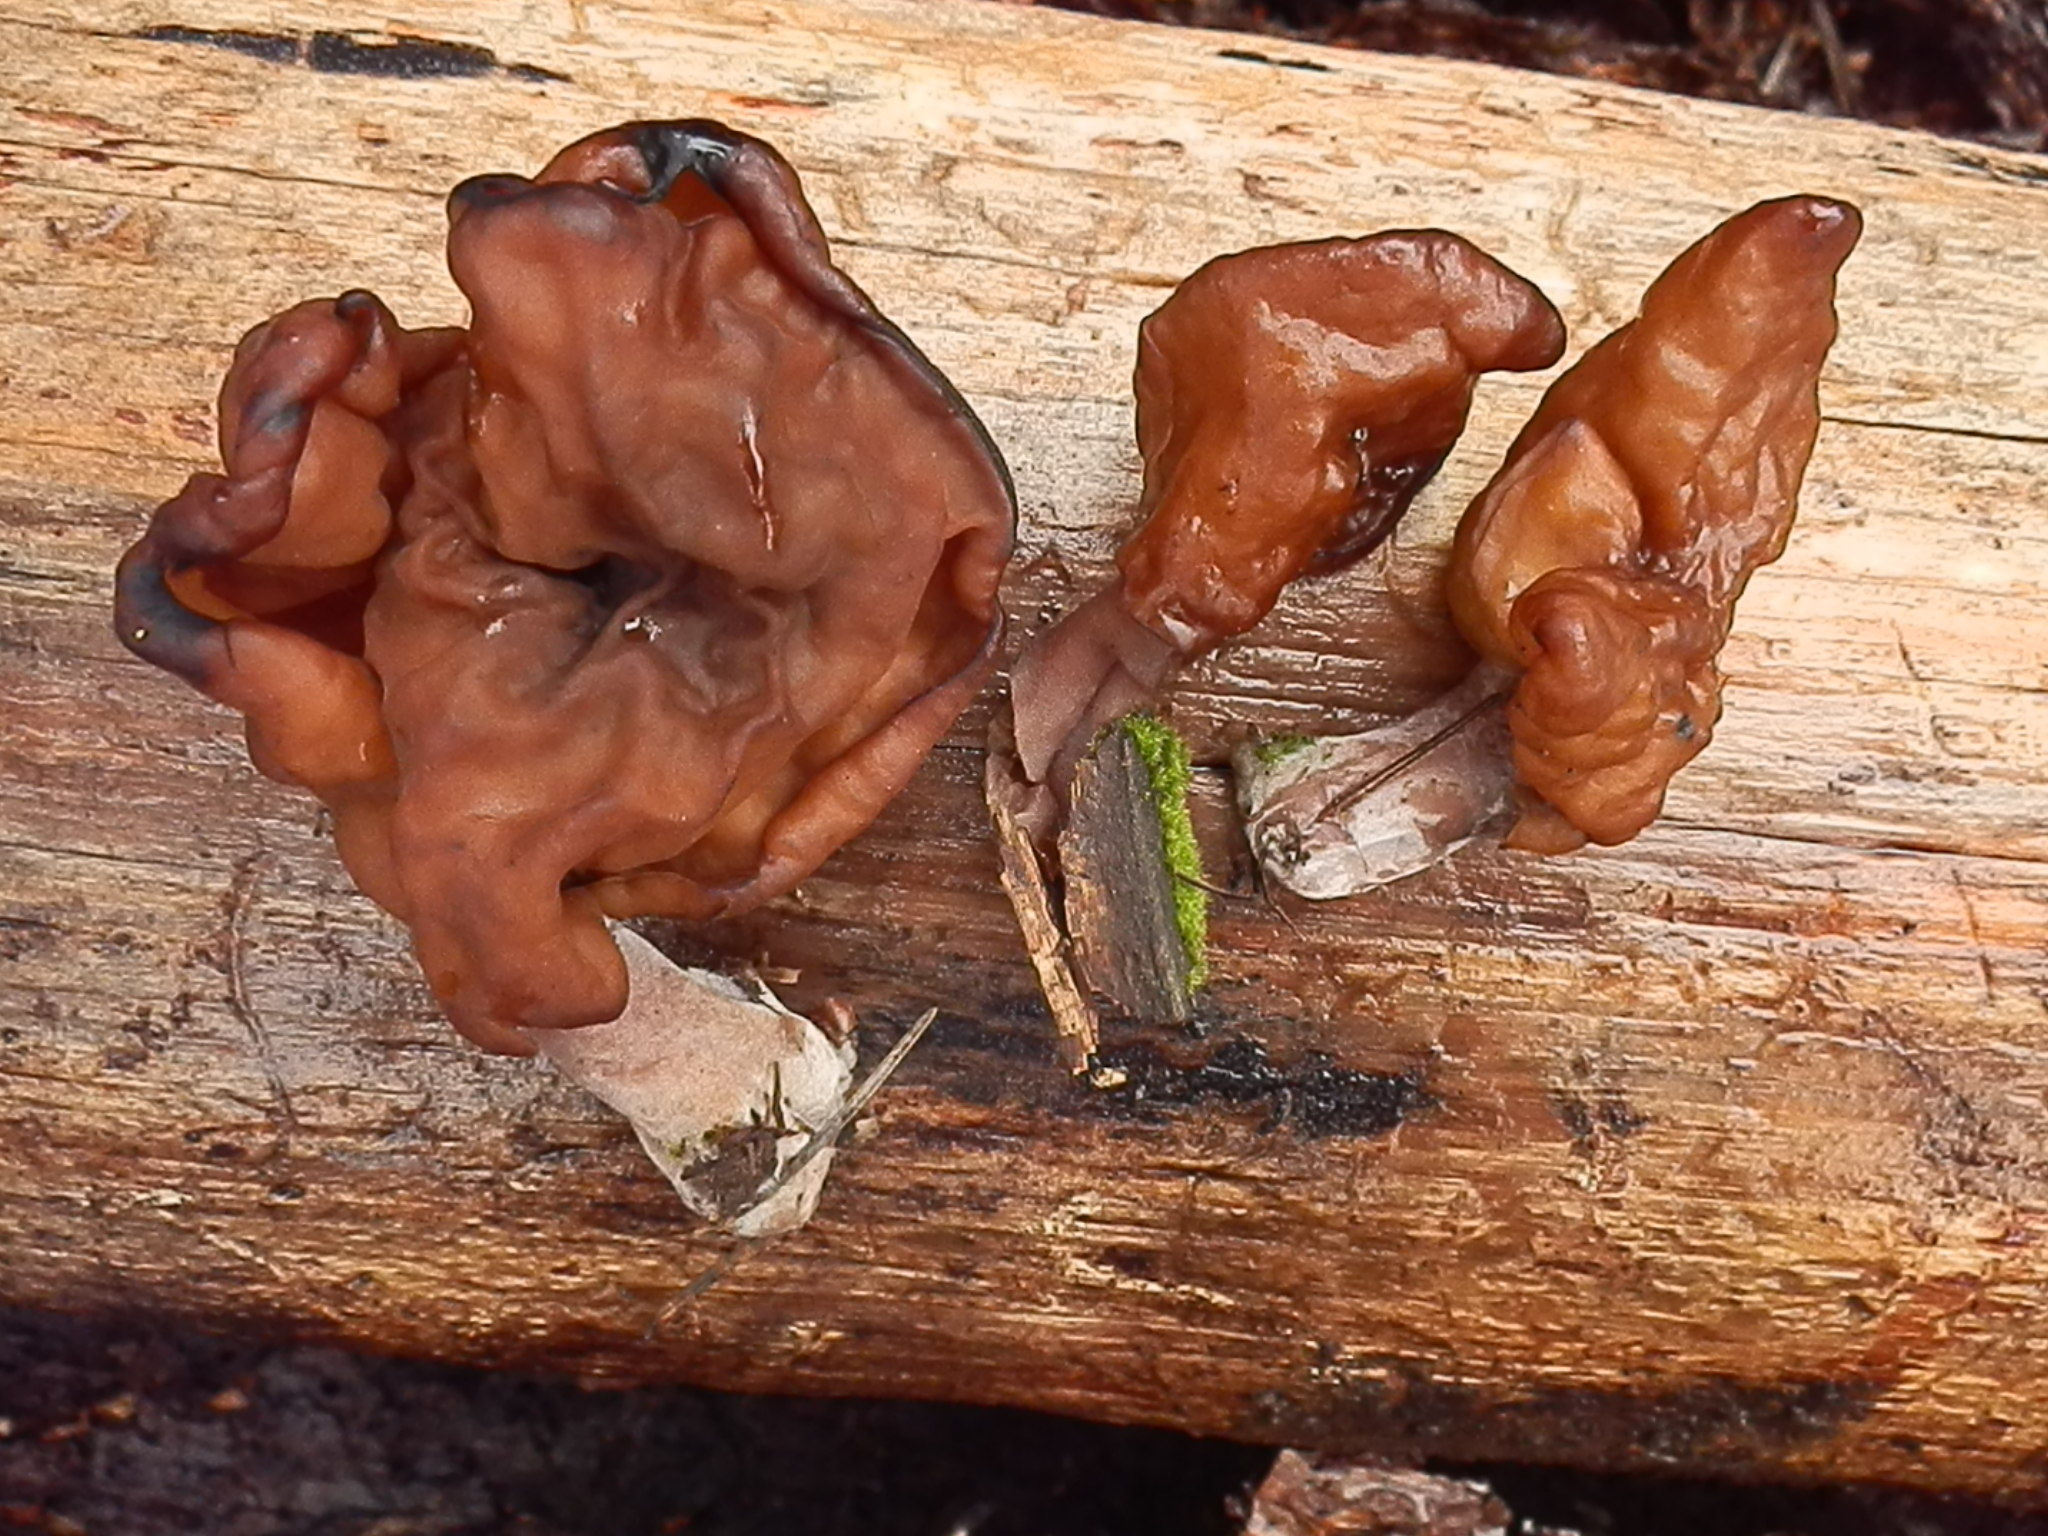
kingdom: Fungi
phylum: Ascomycota
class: Pezizomycetes
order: Pezizales
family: Discinaceae
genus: Gyromitra
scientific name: Gyromitra infula
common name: Pouched false morel
